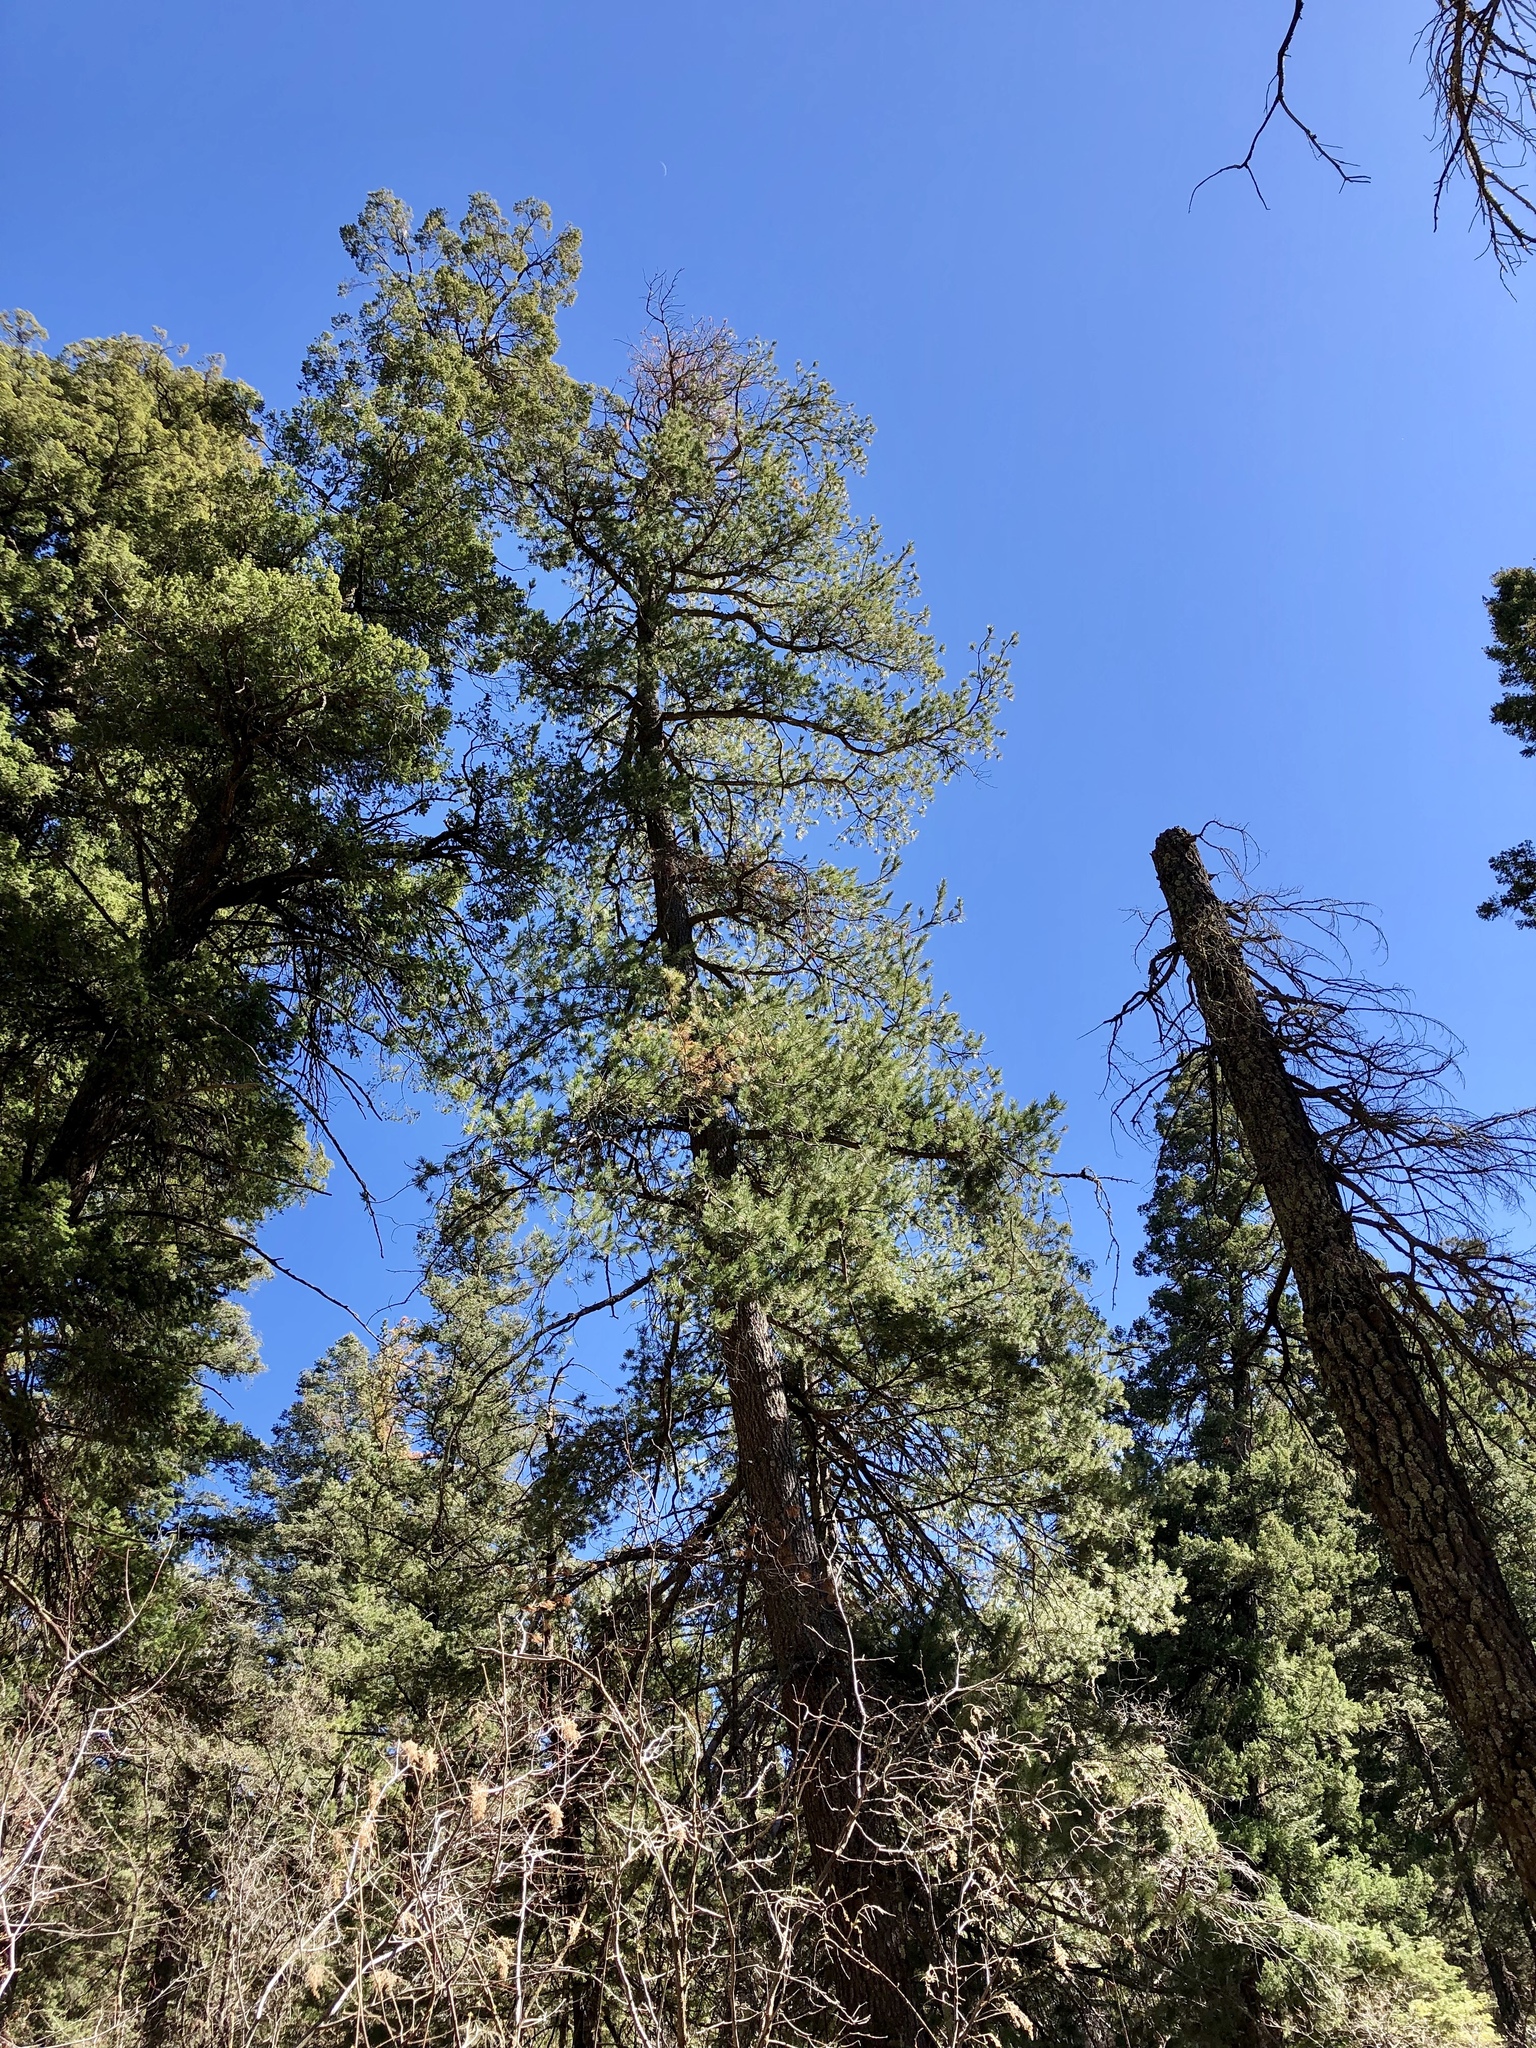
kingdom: Plantae
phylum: Tracheophyta
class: Pinopsida
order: Pinales
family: Pinaceae
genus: Pinus
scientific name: Pinus strobiformis
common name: Southwestern white pine
